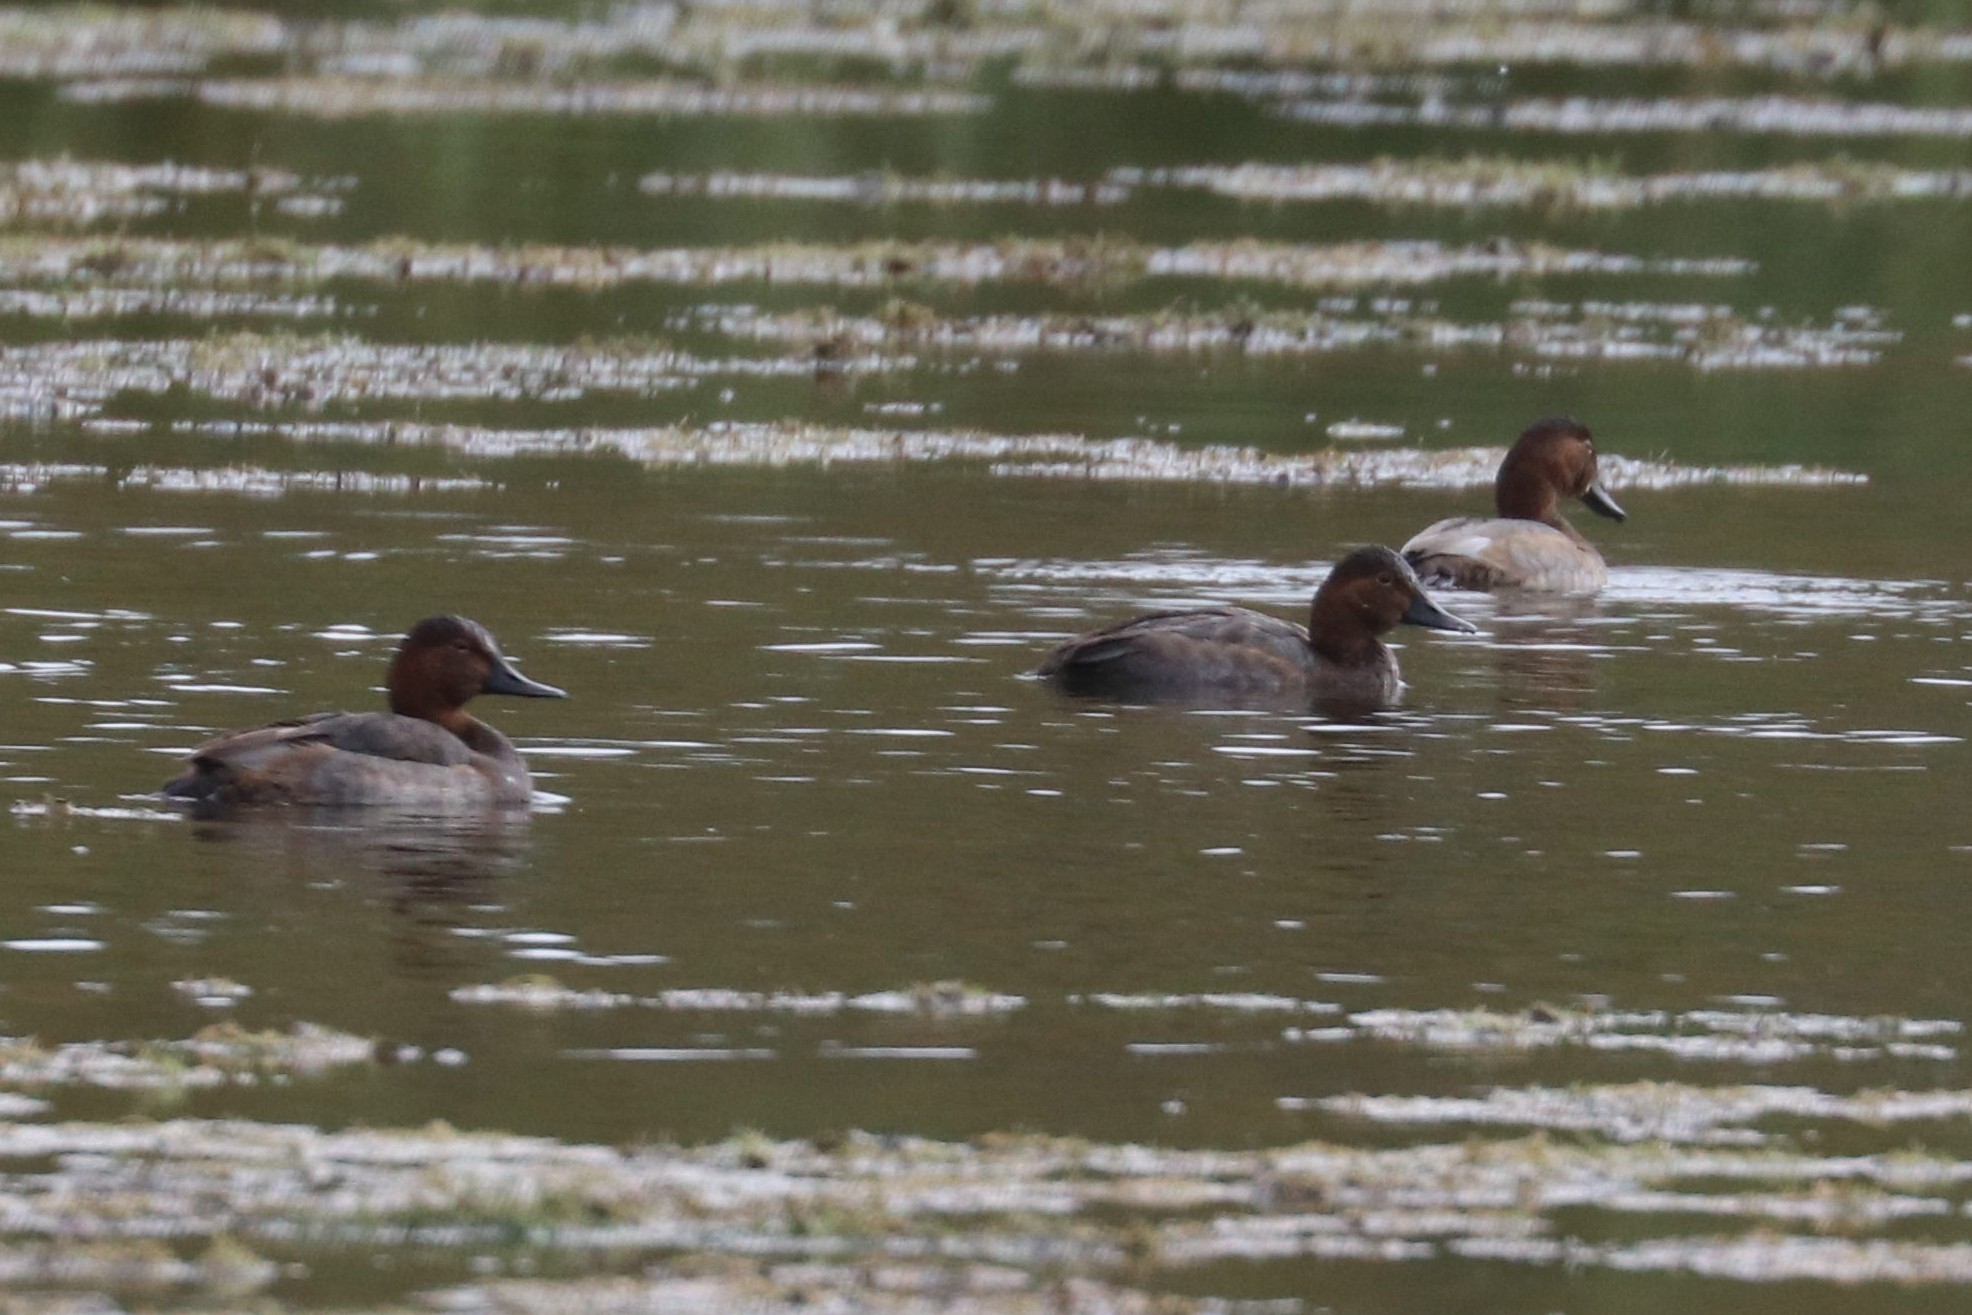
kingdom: Animalia
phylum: Chordata
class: Aves
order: Anseriformes
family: Anatidae
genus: Aythya
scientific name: Aythya ferina
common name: Common pochard
